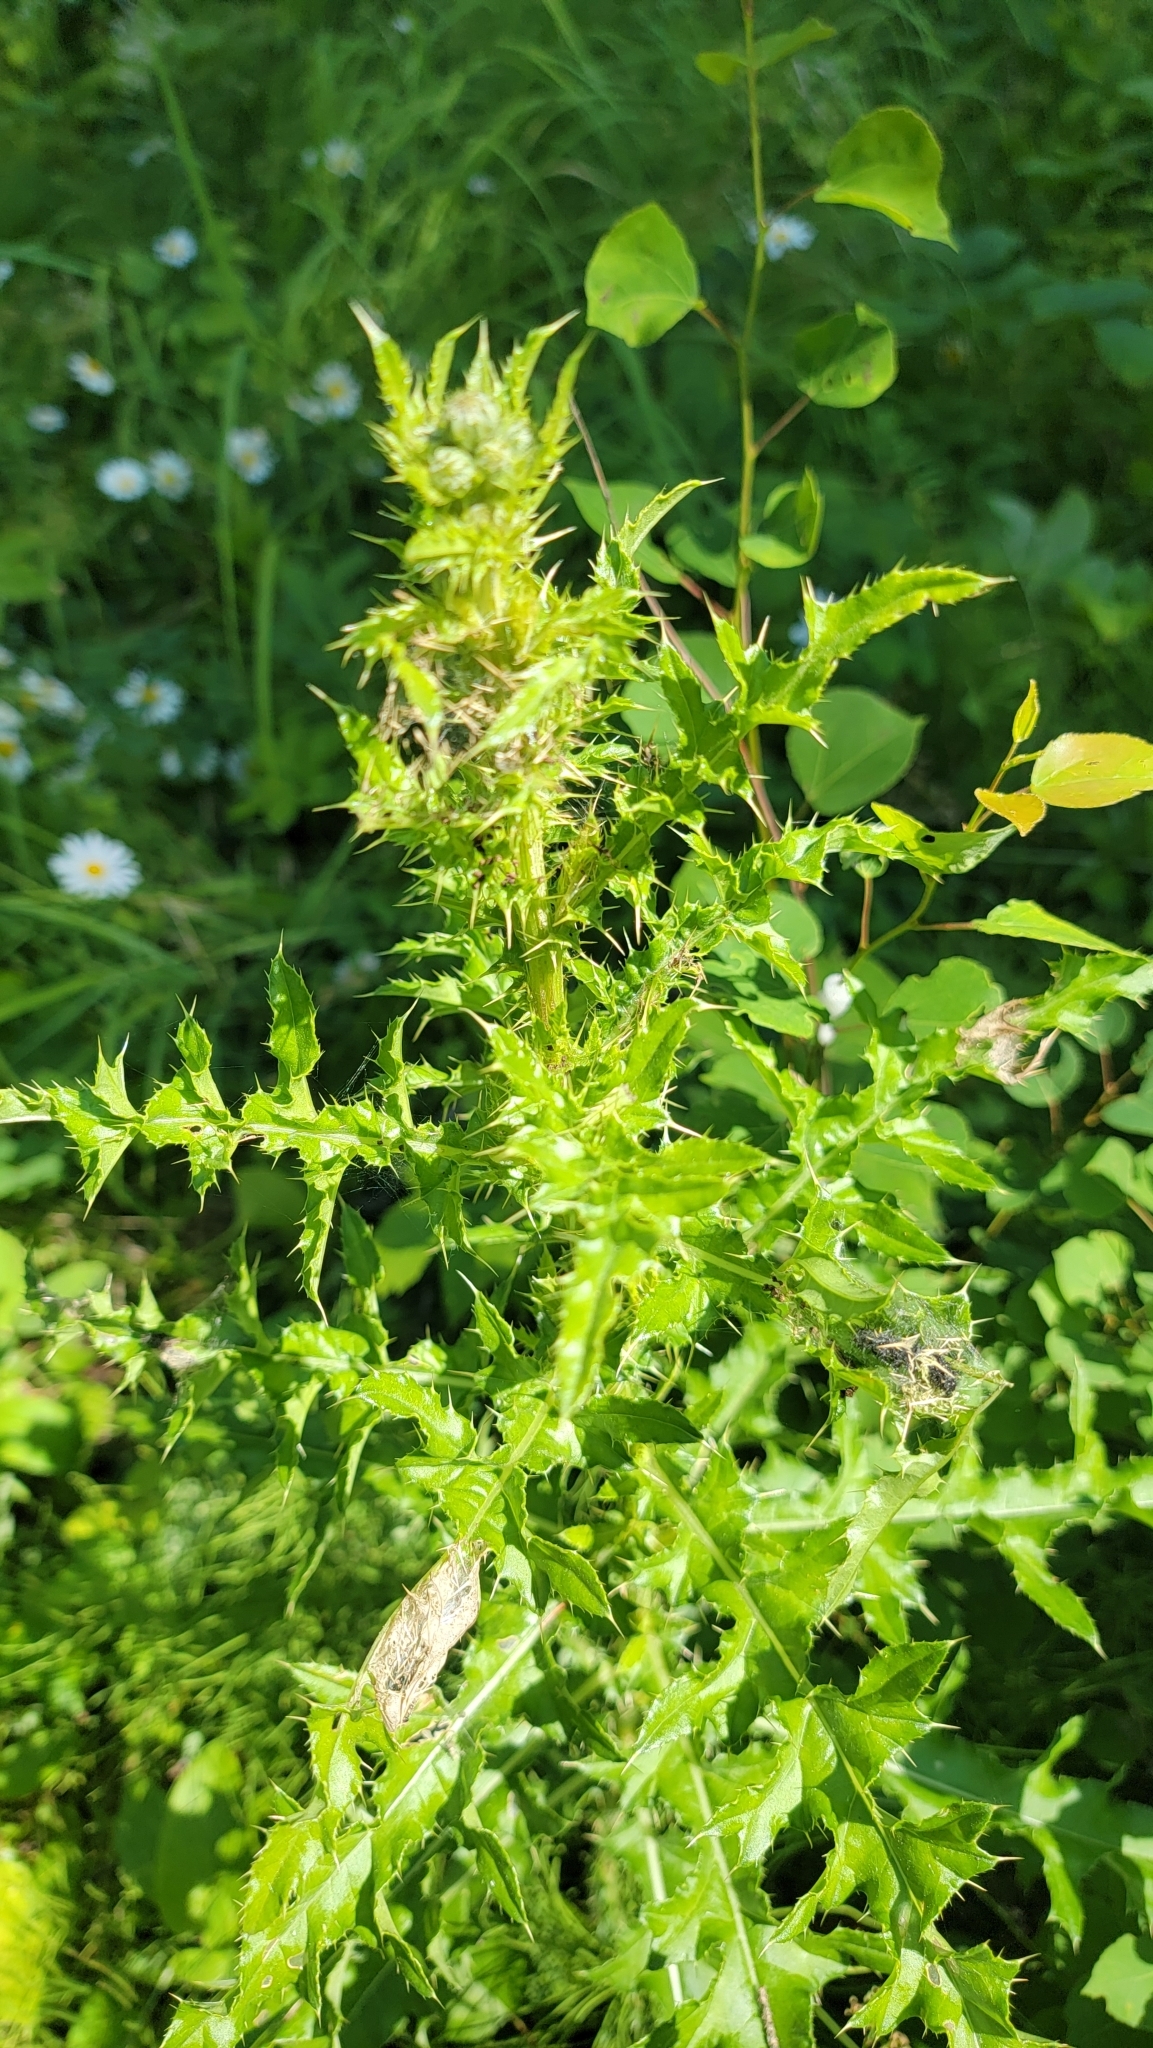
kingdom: Plantae
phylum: Tracheophyta
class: Magnoliopsida
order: Asterales
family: Asteraceae
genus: Cirsium
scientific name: Cirsium arvense
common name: Creeping thistle
